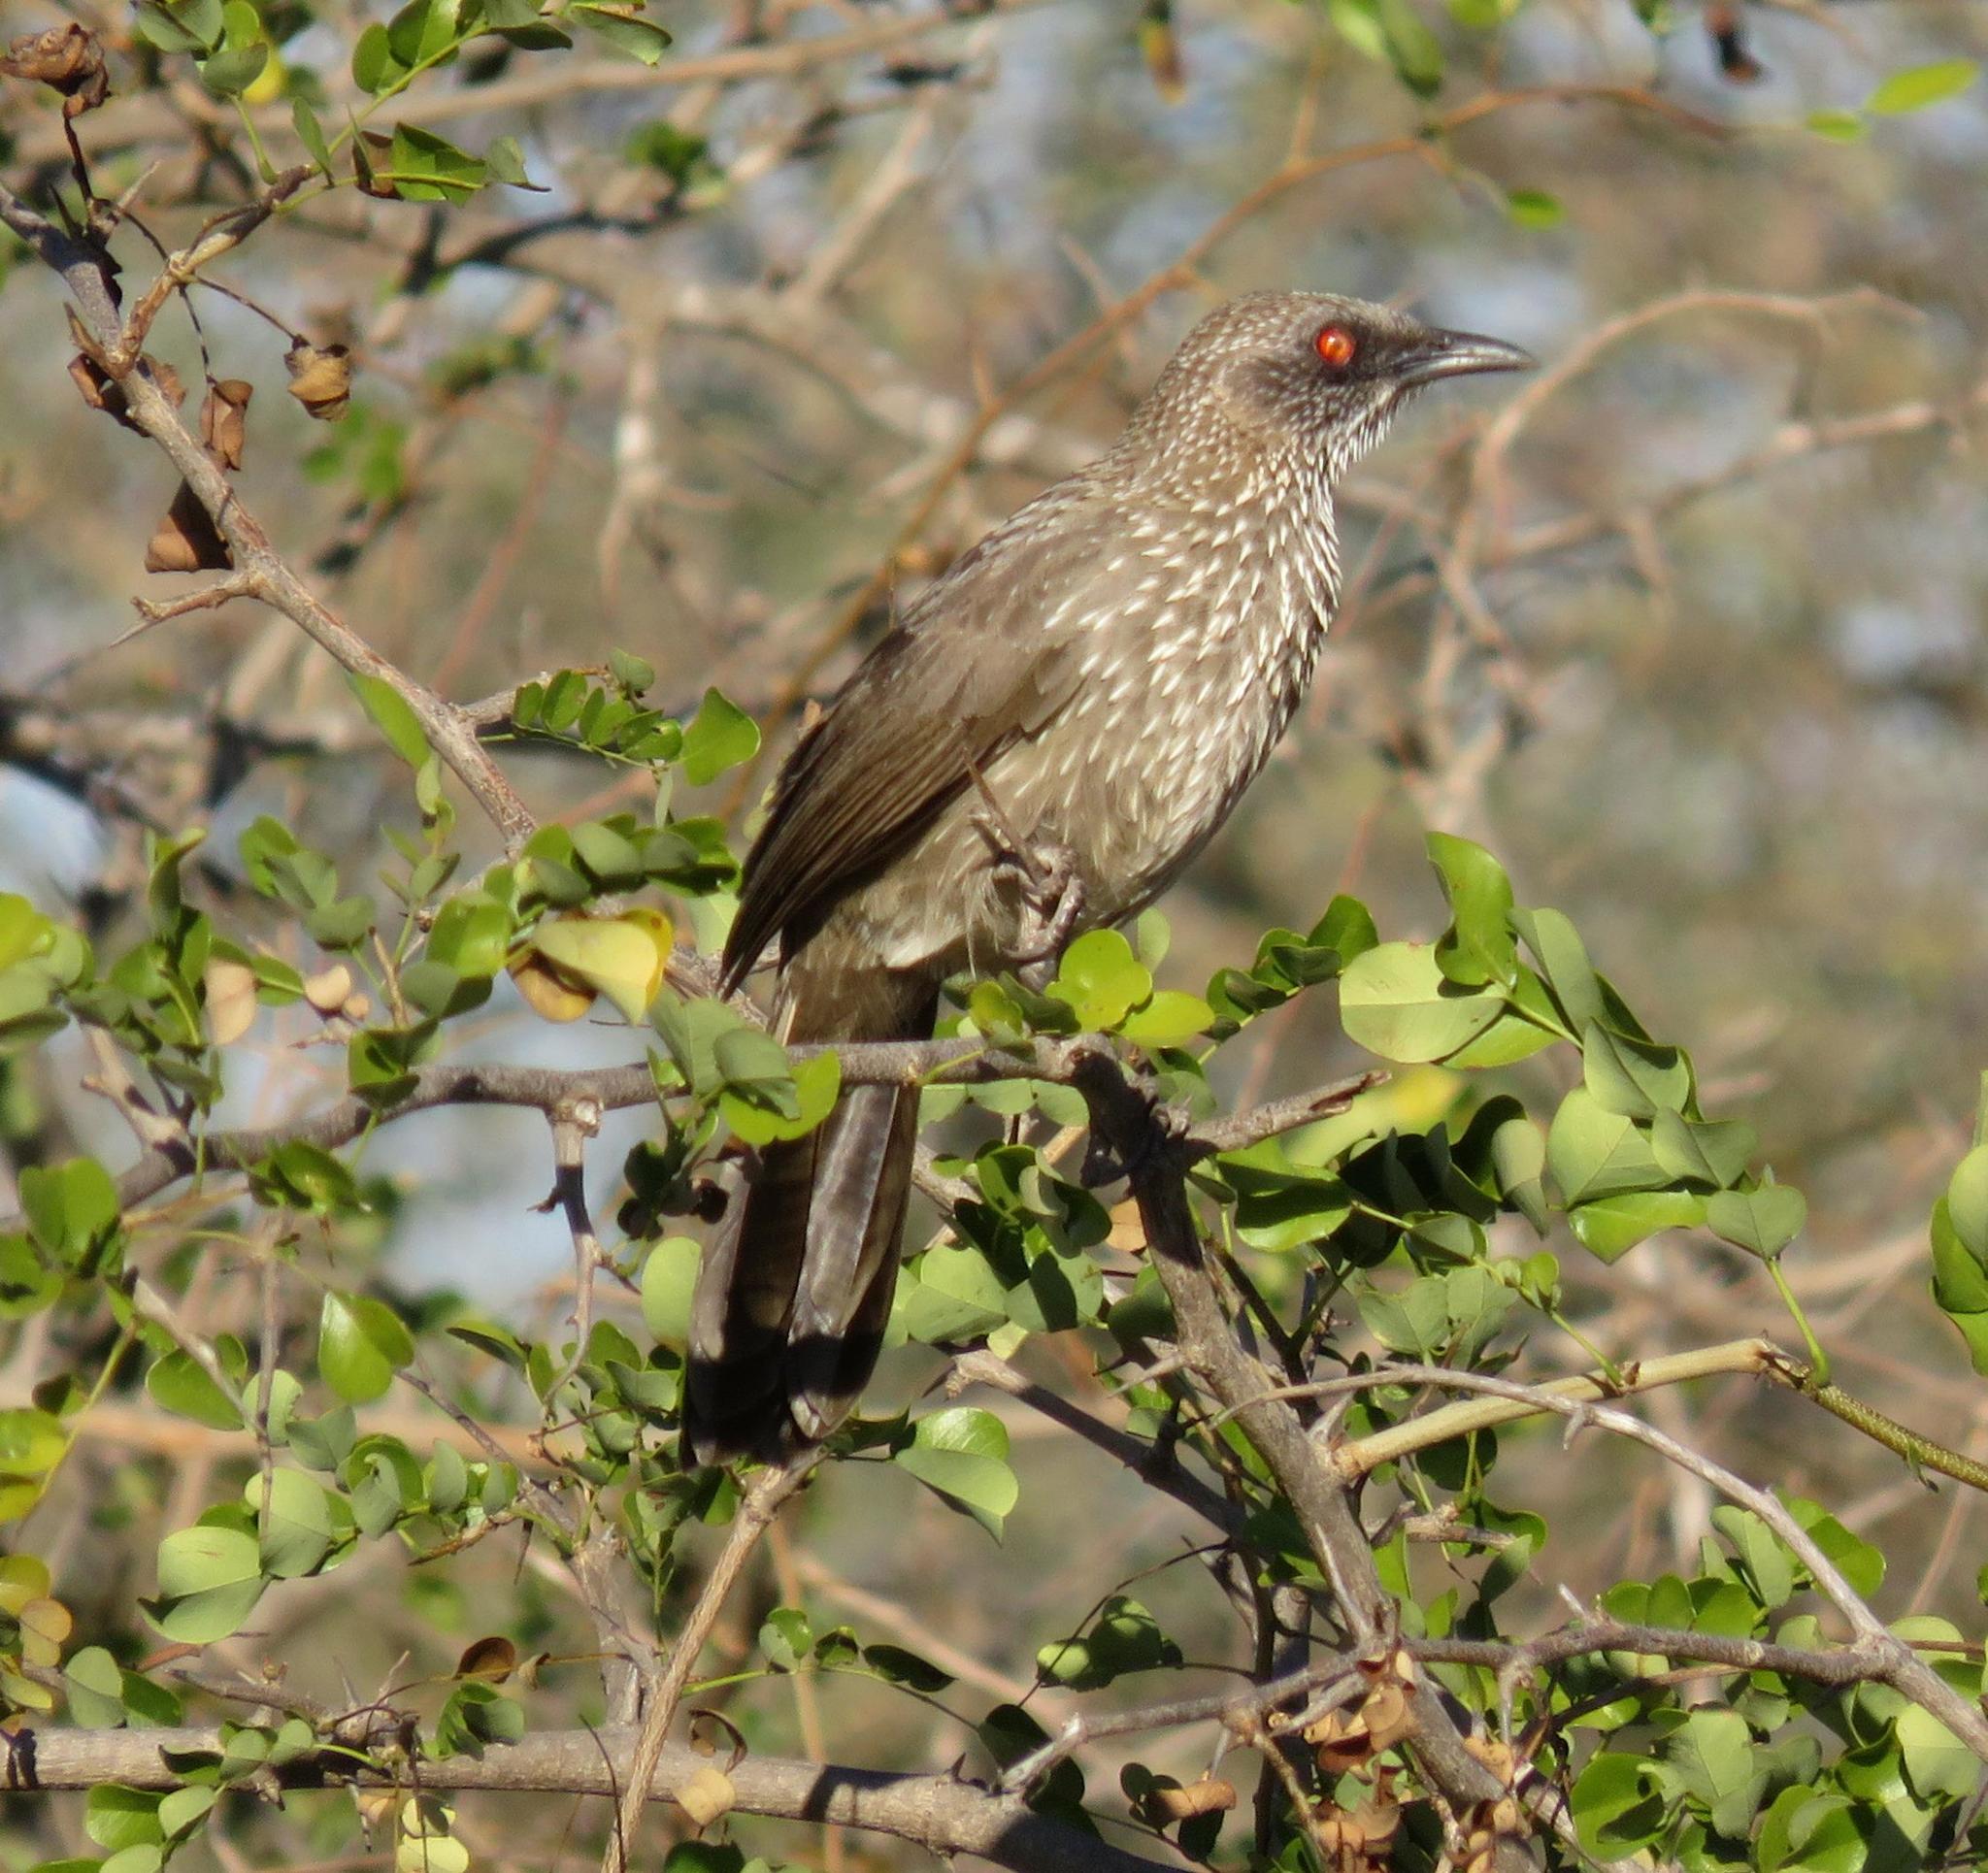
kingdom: Animalia
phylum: Chordata
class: Aves
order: Passeriformes
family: Leiothrichidae
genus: Turdoides
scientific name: Turdoides jardineii
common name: Arrow-marked babbler
